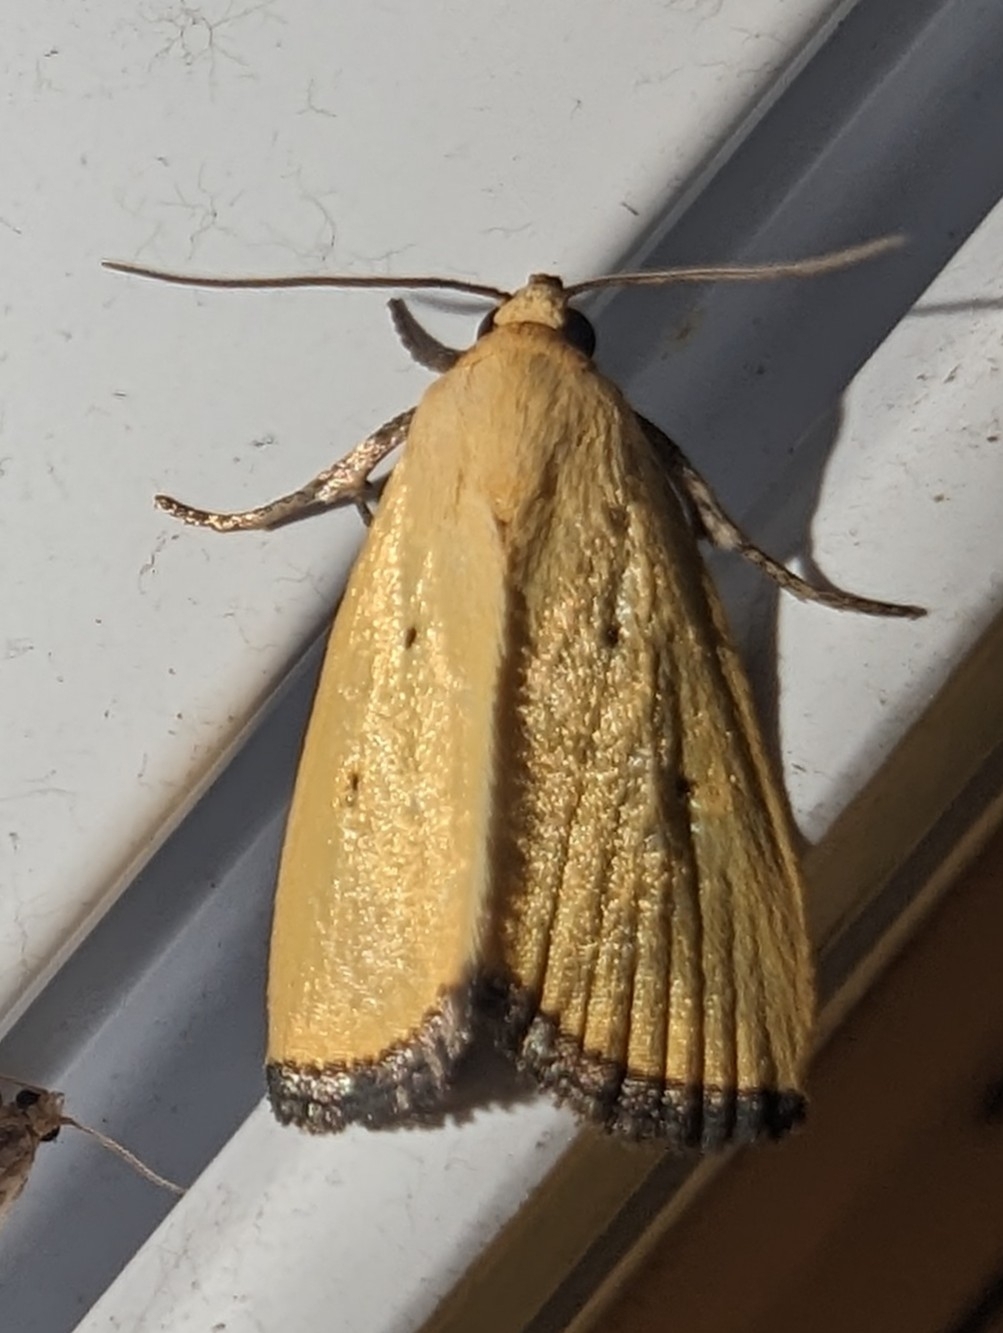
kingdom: Animalia
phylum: Arthropoda
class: Insecta
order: Lepidoptera
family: Noctuidae
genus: Marimatha
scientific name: Marimatha nigrofimbria
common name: Black-bordered lemon moth
